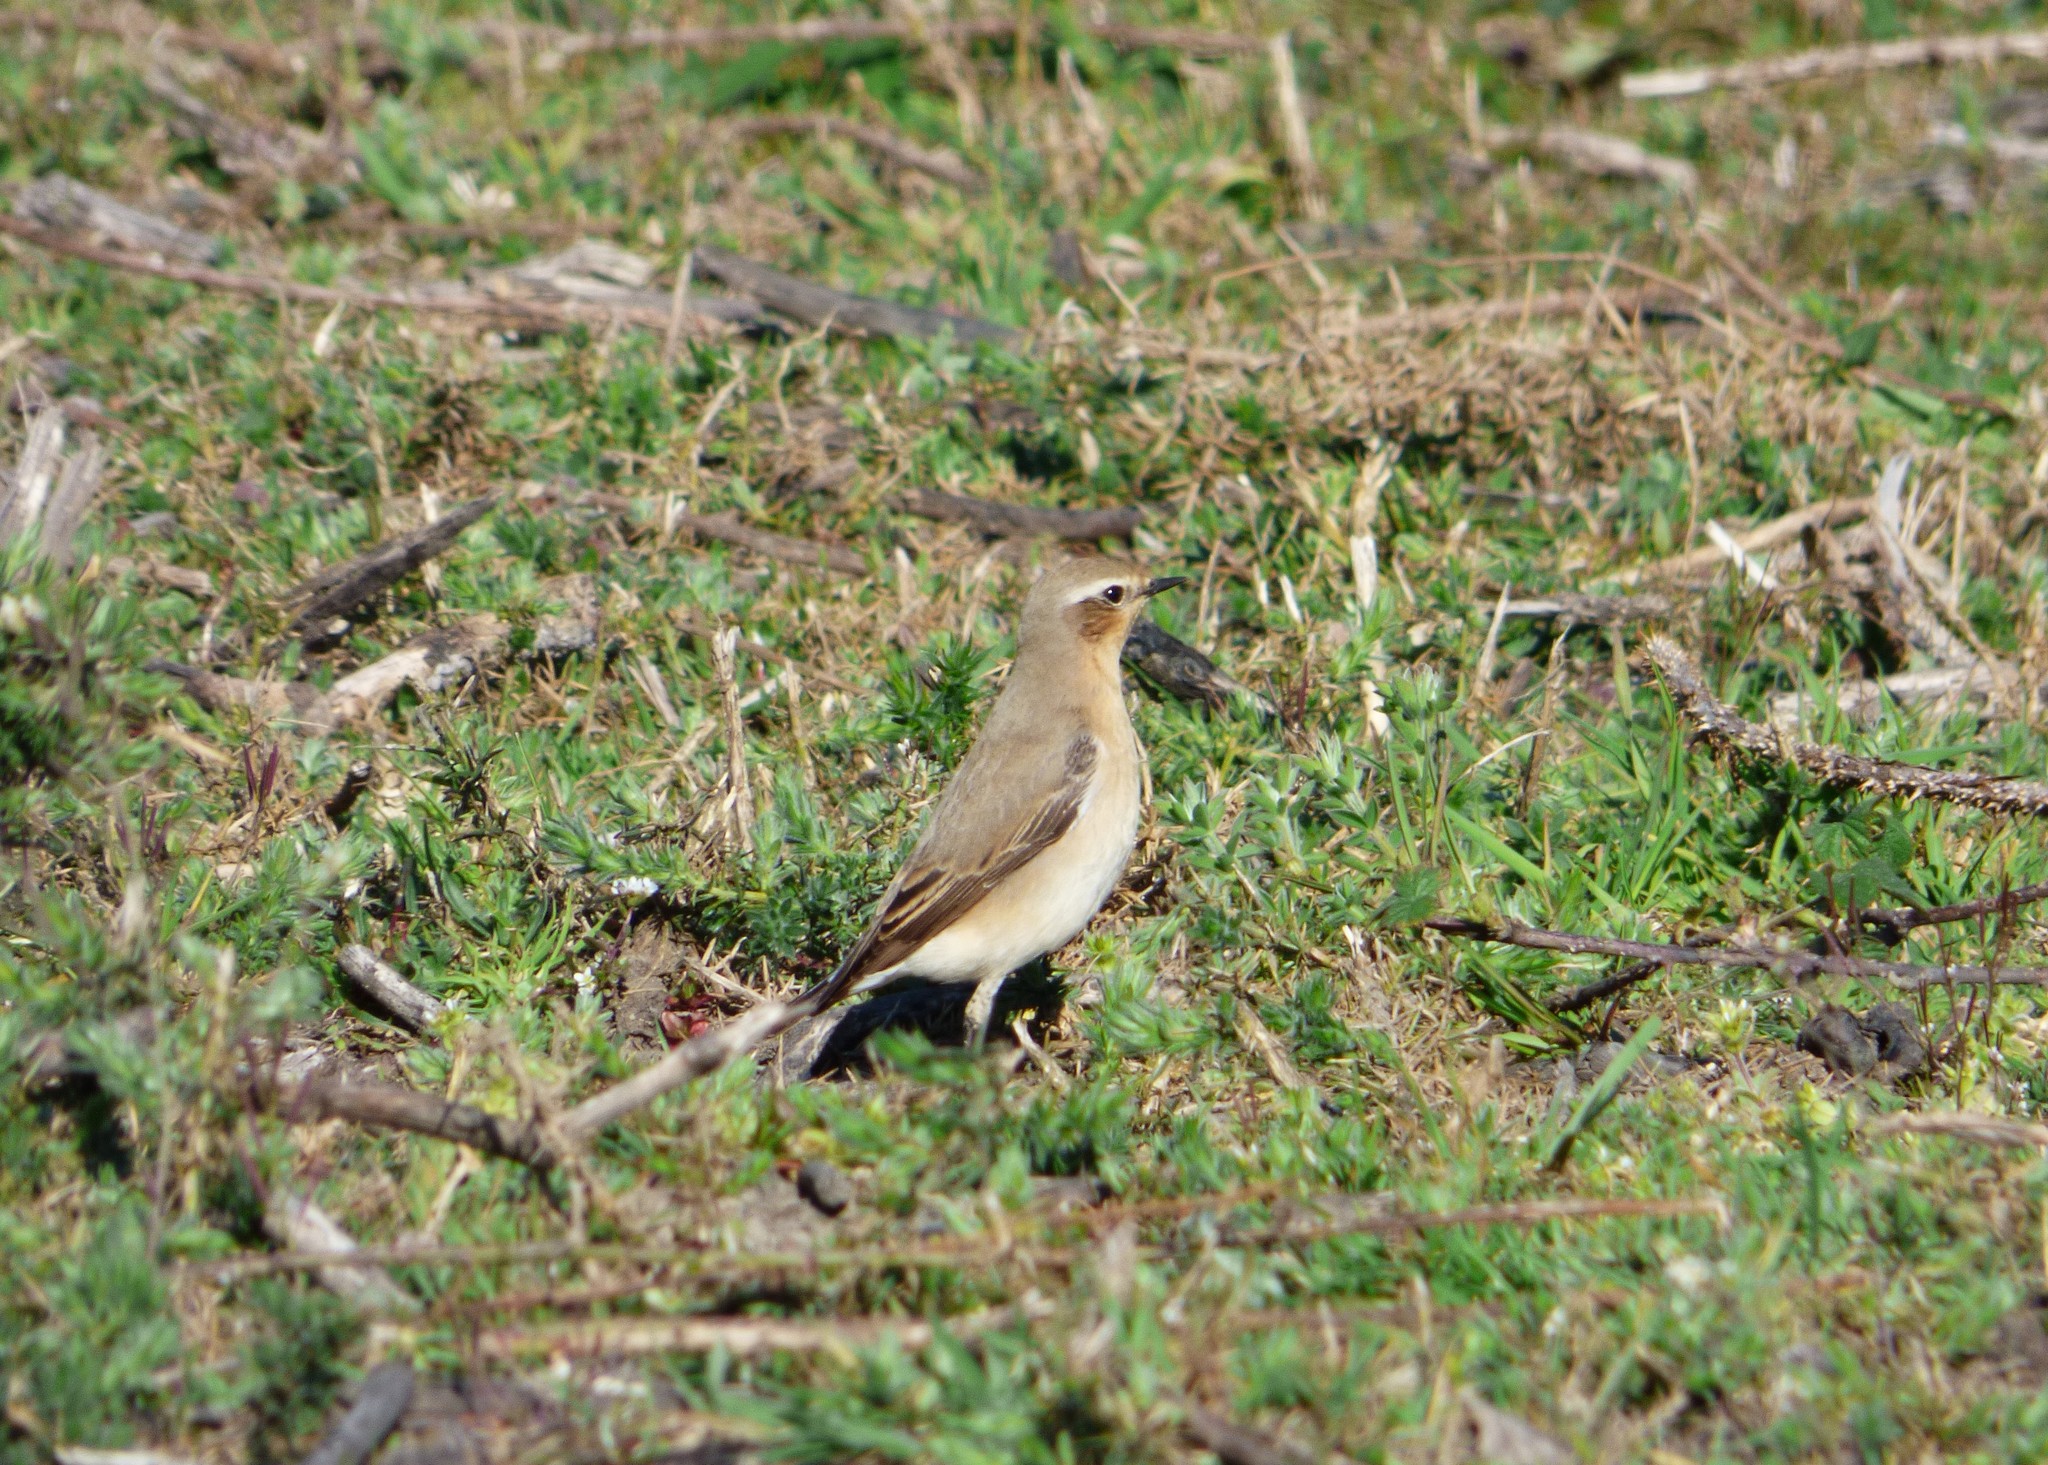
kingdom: Animalia
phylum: Chordata
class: Aves
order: Passeriformes
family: Muscicapidae
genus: Oenanthe
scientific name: Oenanthe oenanthe
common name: Northern wheatear
